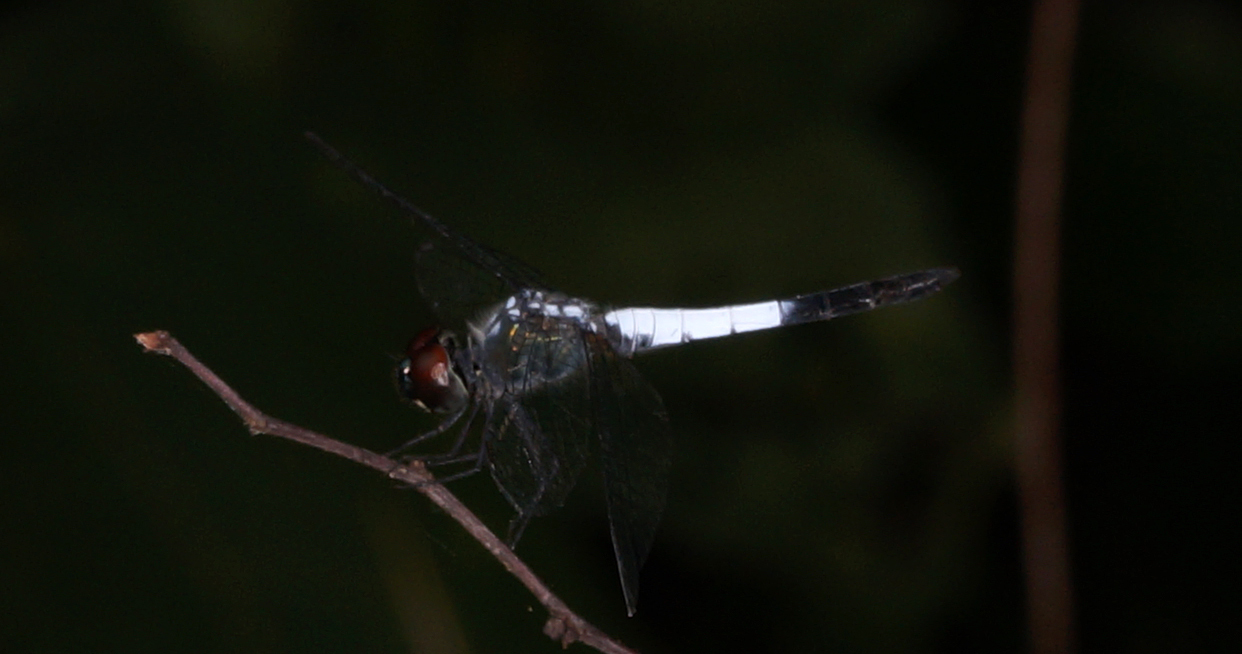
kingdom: Animalia
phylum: Arthropoda
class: Insecta
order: Odonata
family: Libellulidae
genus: Brachydiplax
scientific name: Brachydiplax farinosa
